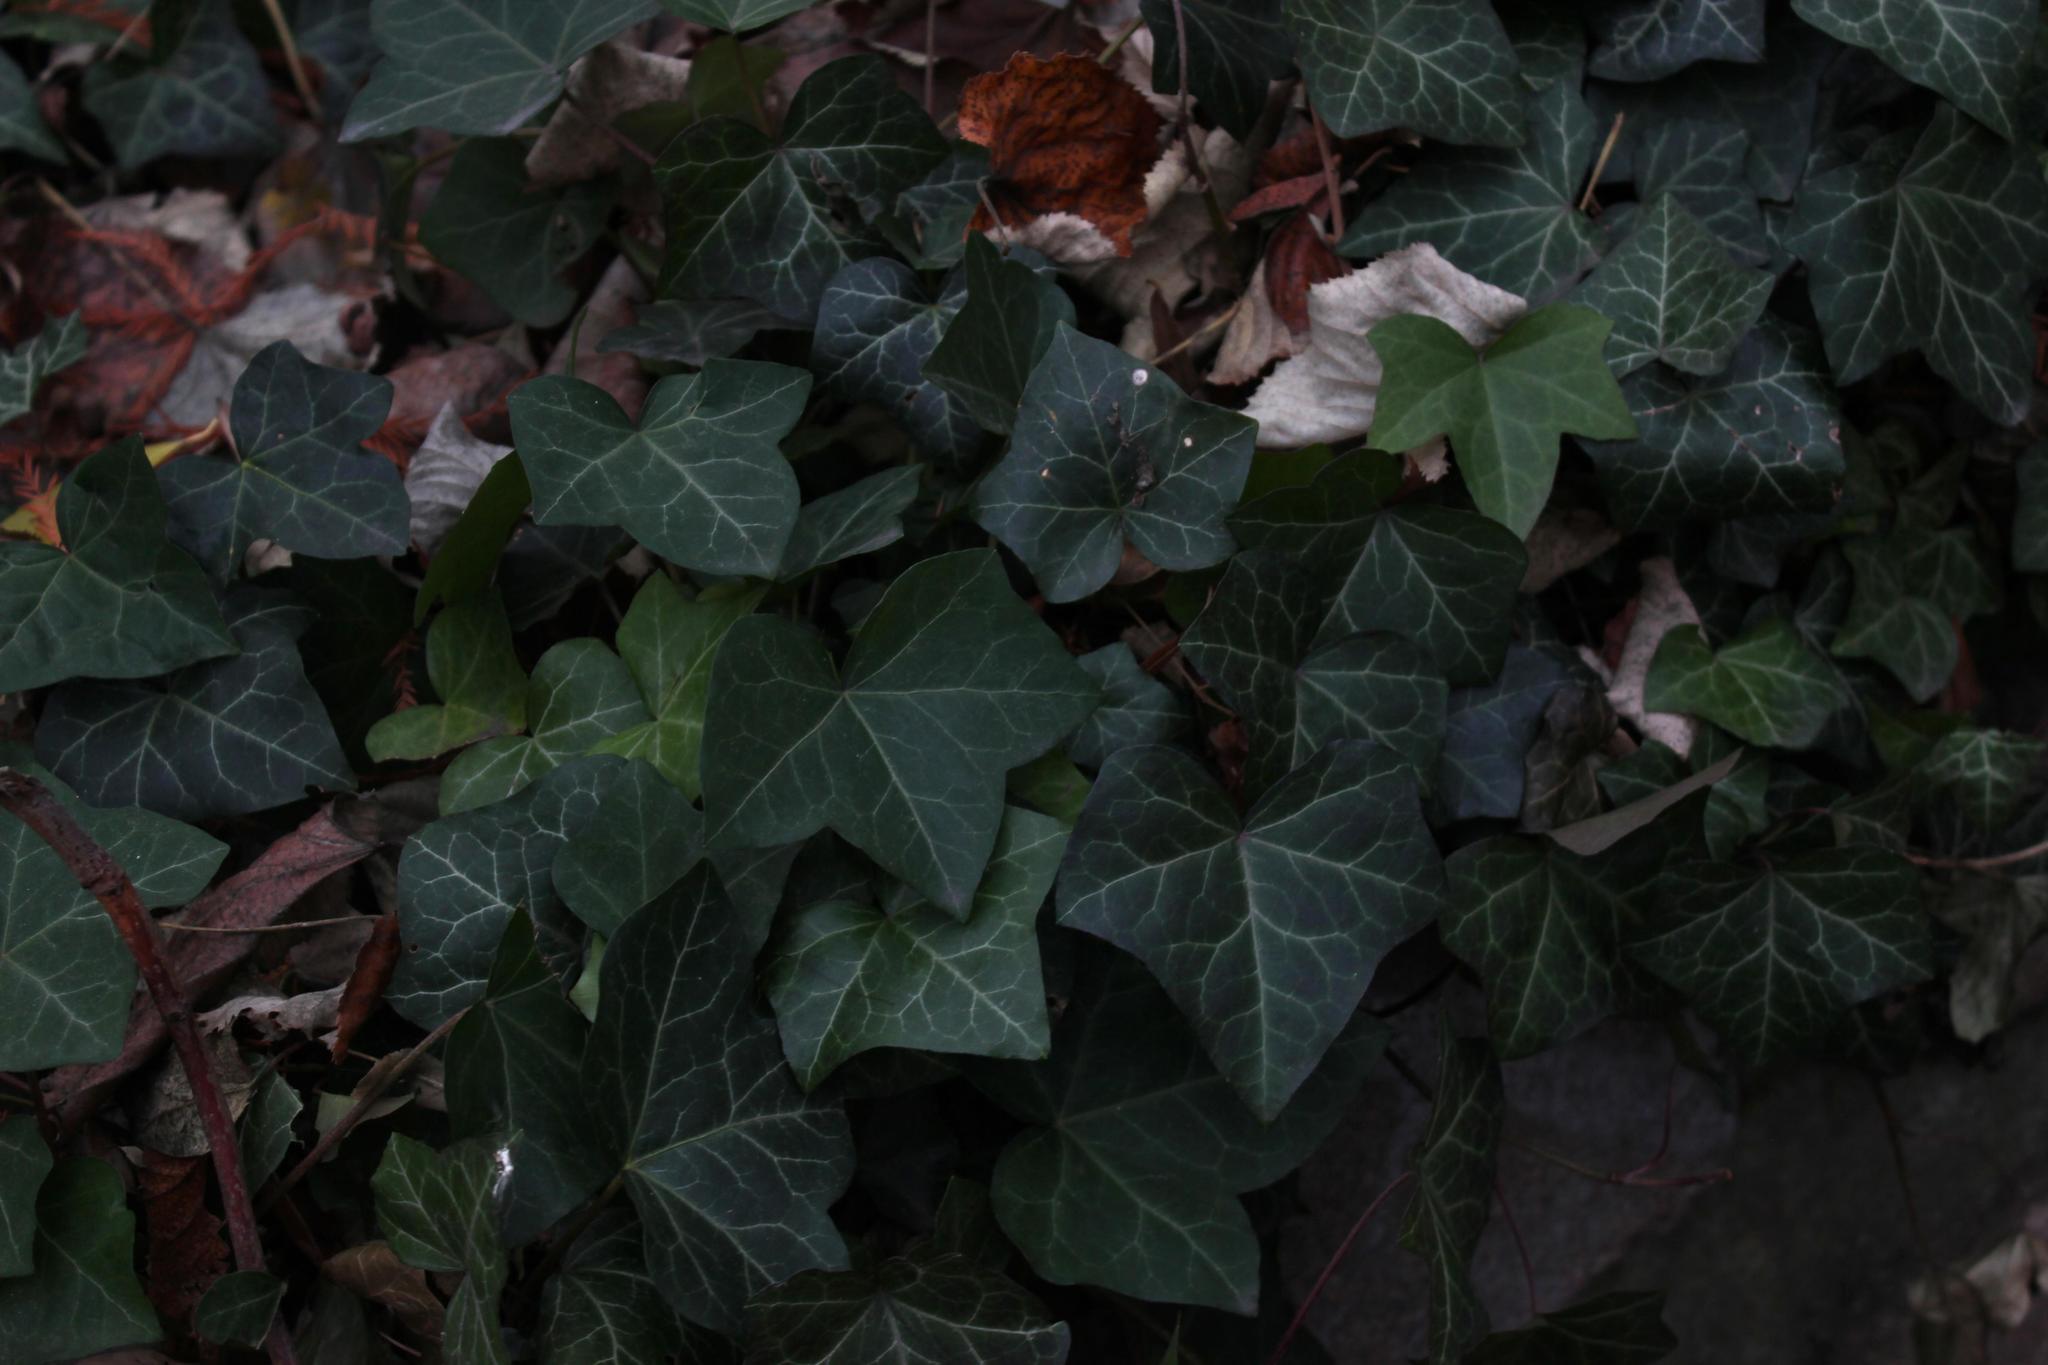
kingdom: Plantae
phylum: Tracheophyta
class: Magnoliopsida
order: Apiales
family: Araliaceae
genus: Hedera
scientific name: Hedera helix
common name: Ivy
